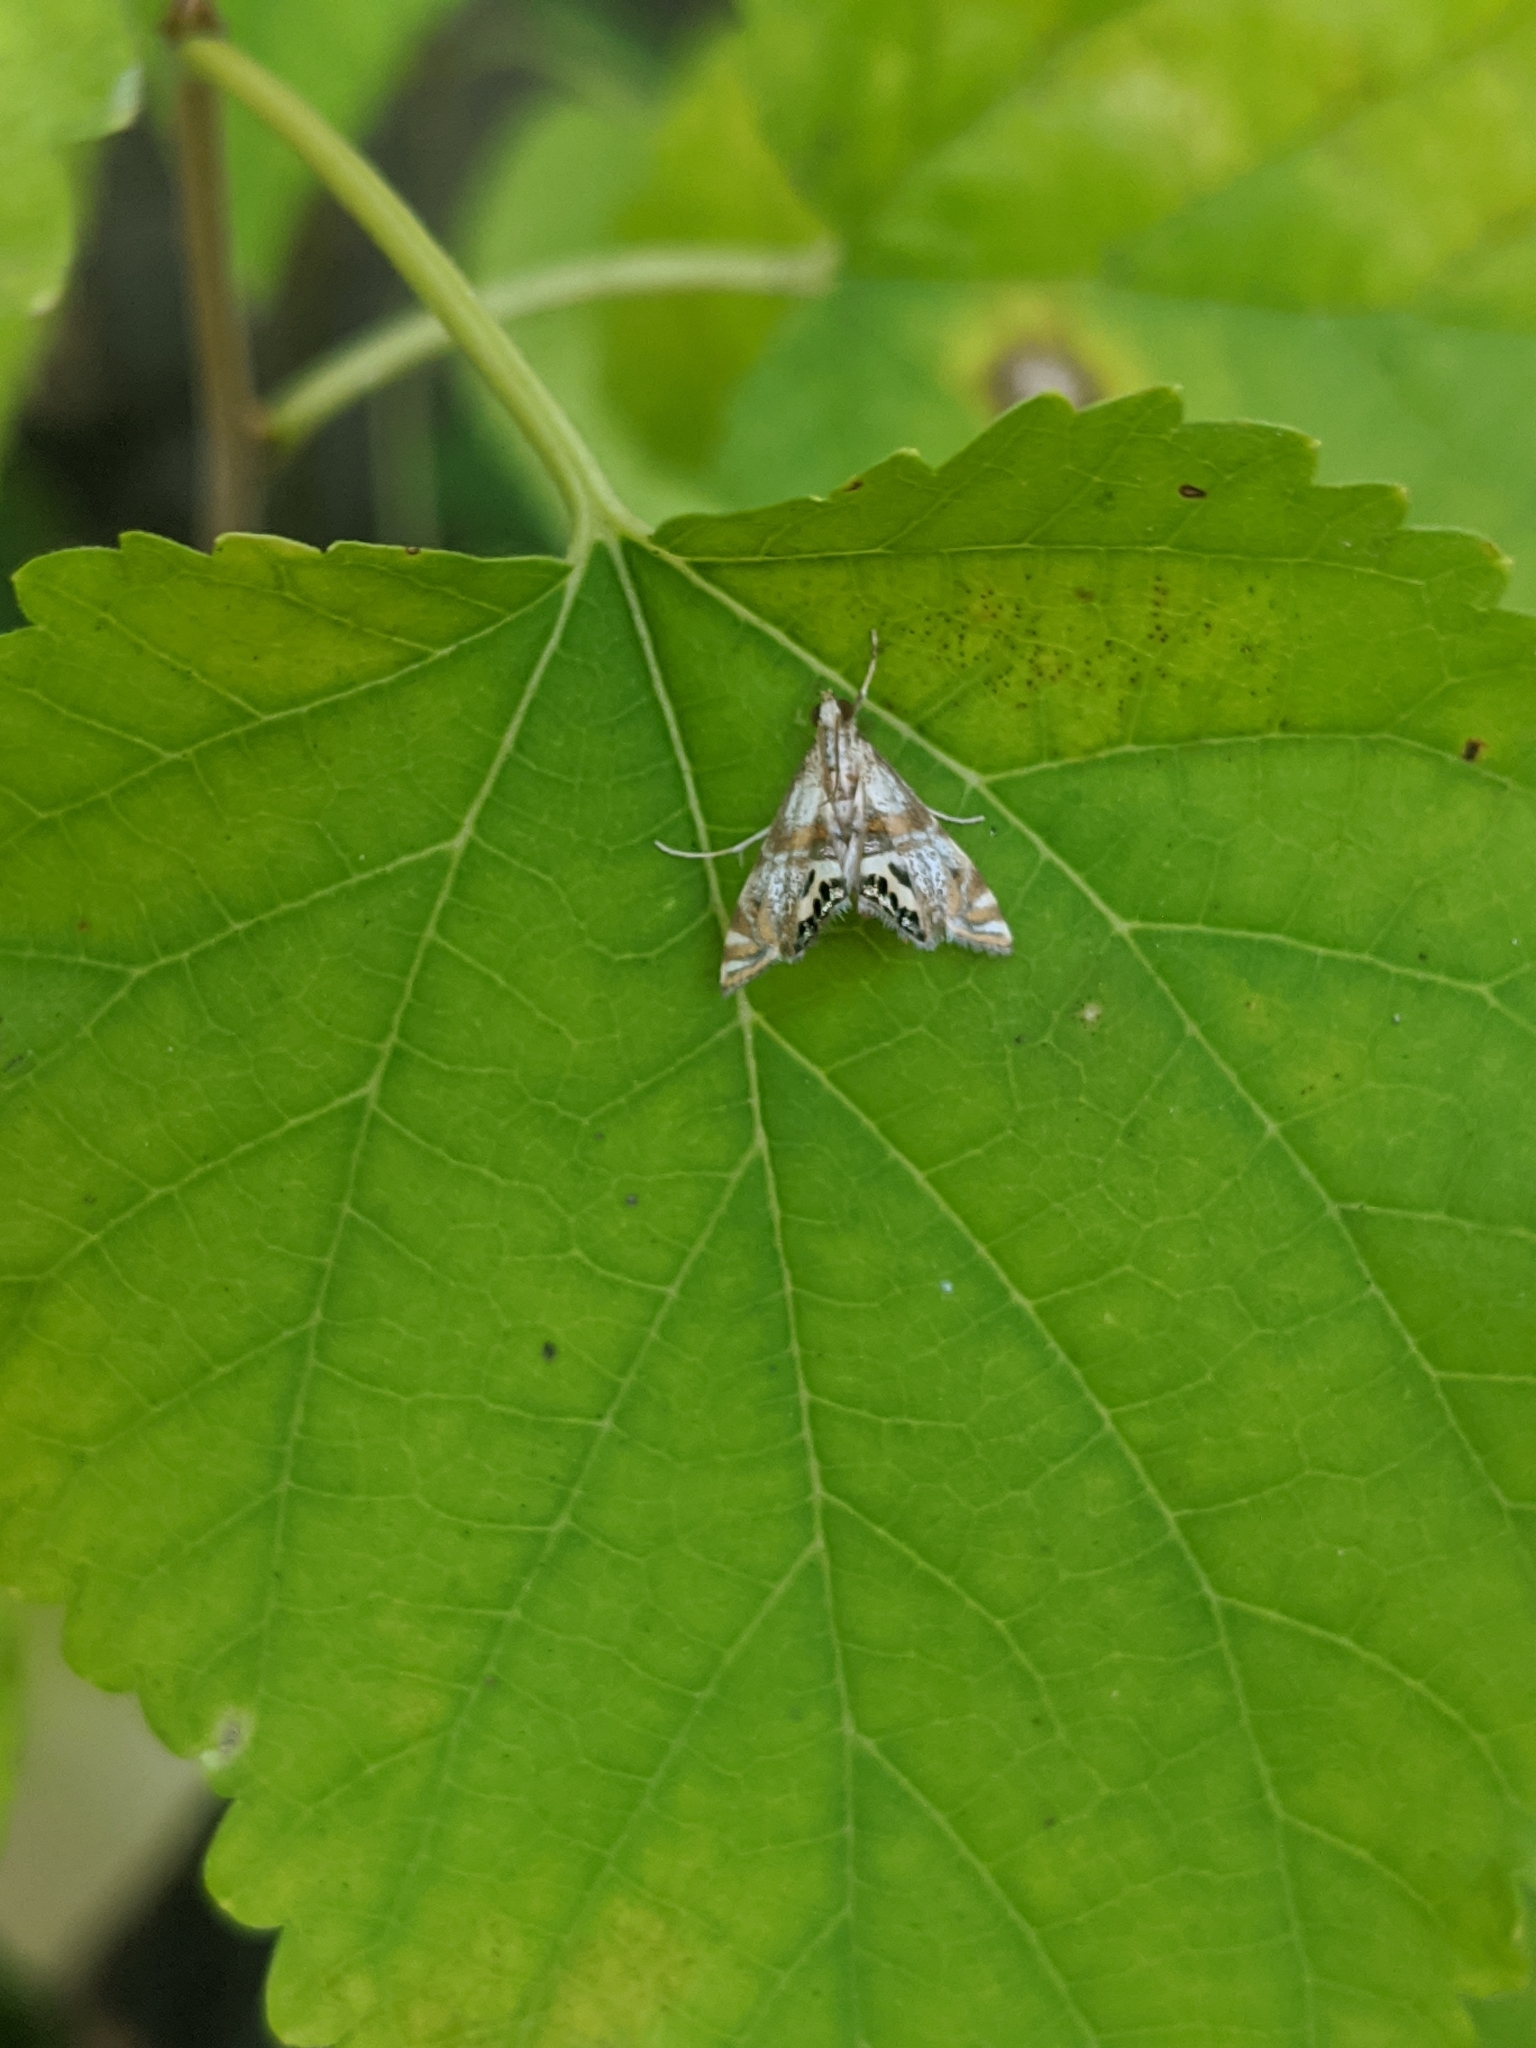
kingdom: Animalia
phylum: Arthropoda
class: Insecta
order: Lepidoptera
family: Crambidae
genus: Petrophila
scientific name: Petrophila bifascialis
